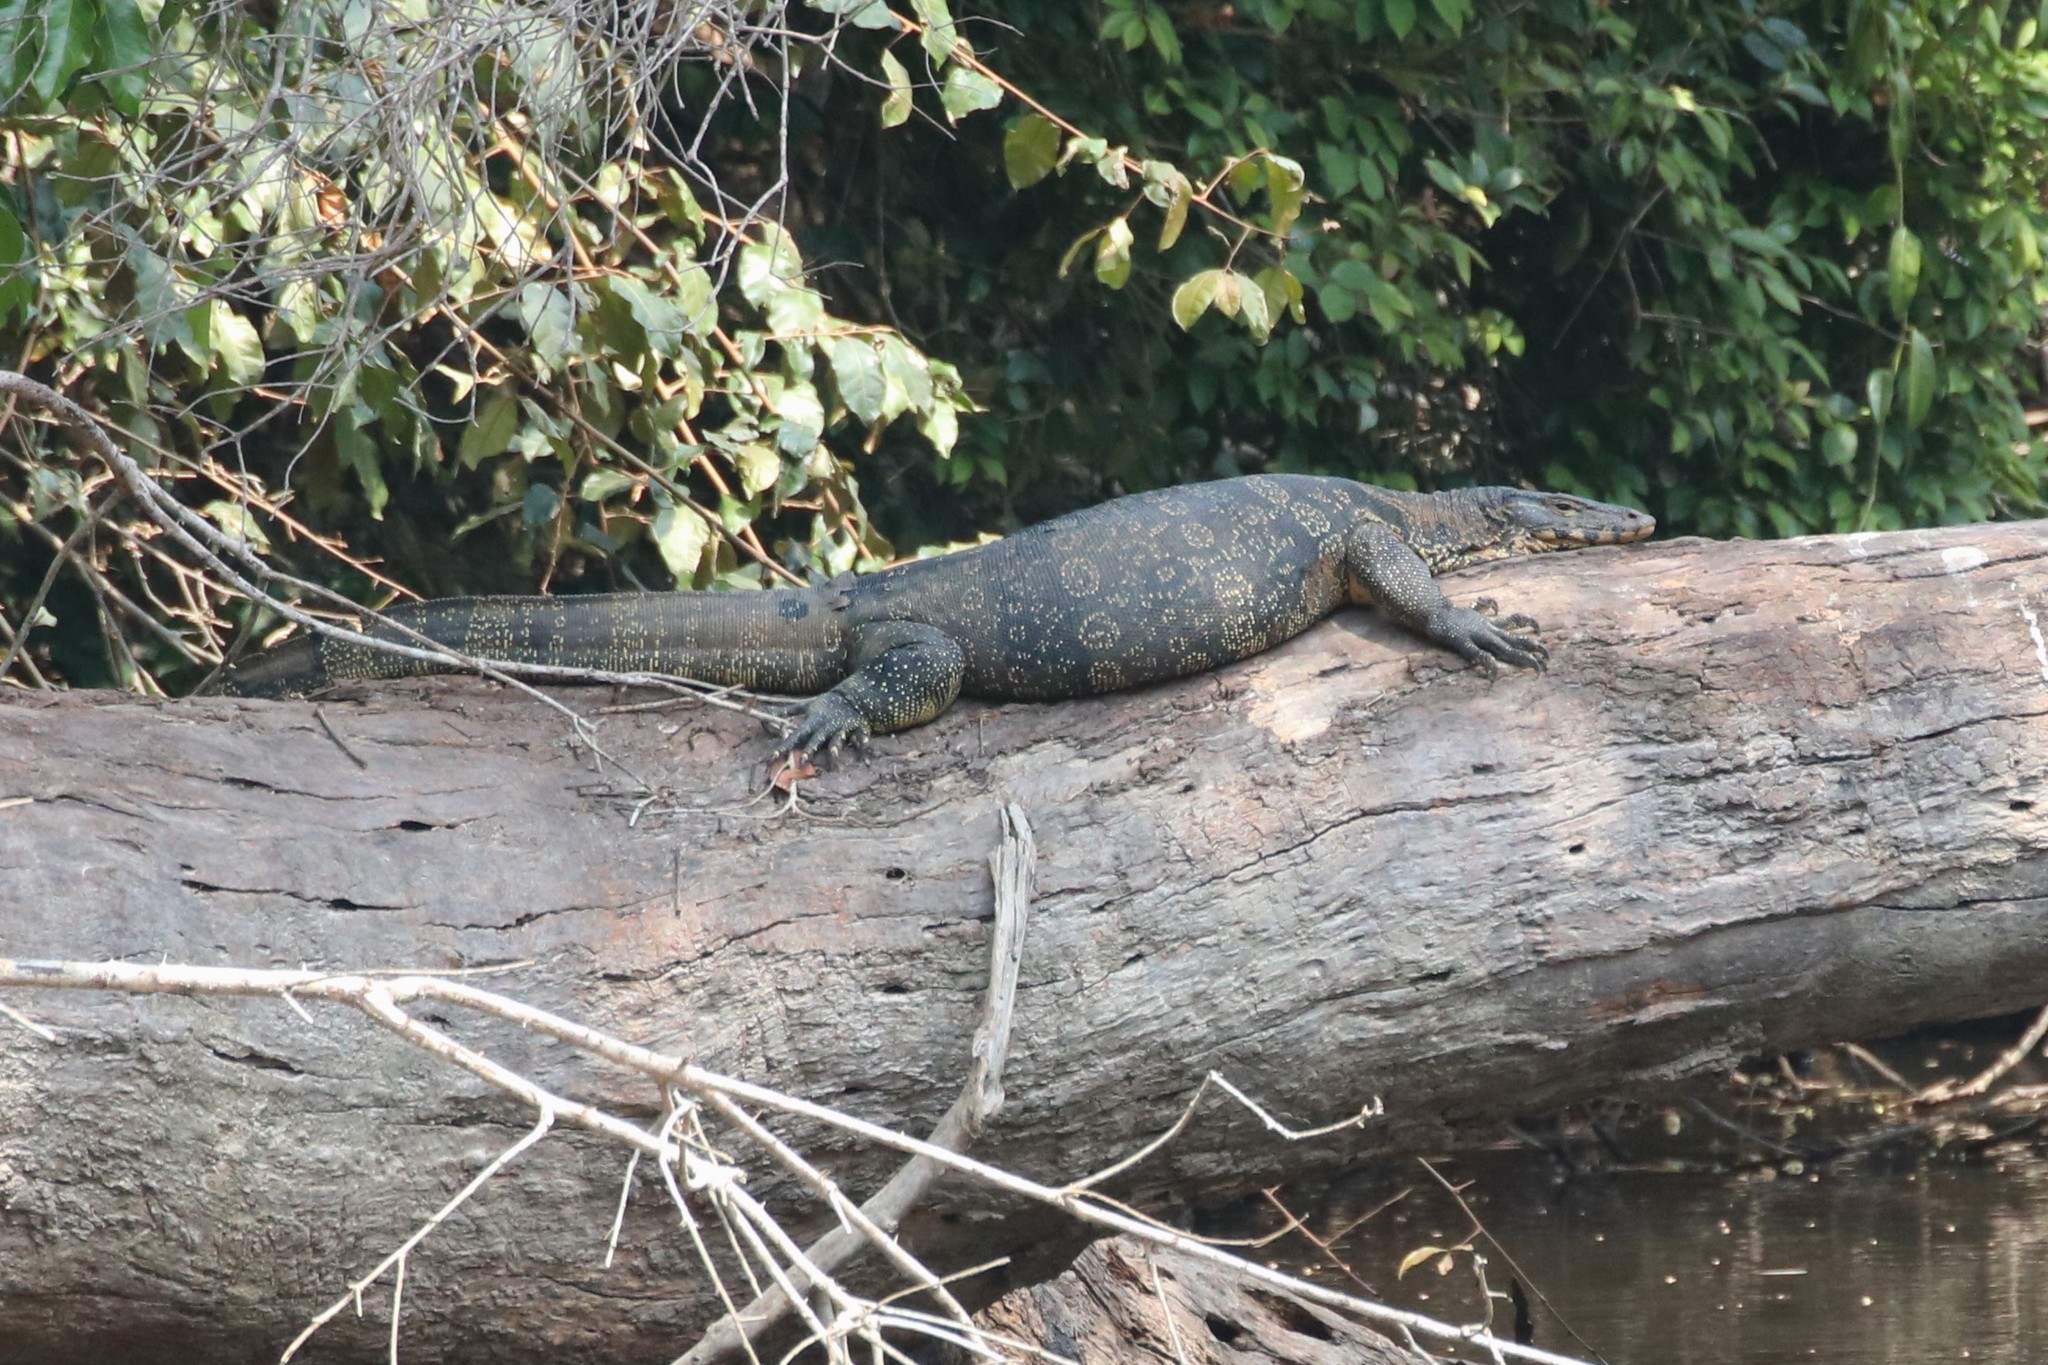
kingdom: Animalia
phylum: Chordata
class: Squamata
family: Varanidae
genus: Varanus
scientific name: Varanus salvator
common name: Common water monitor
